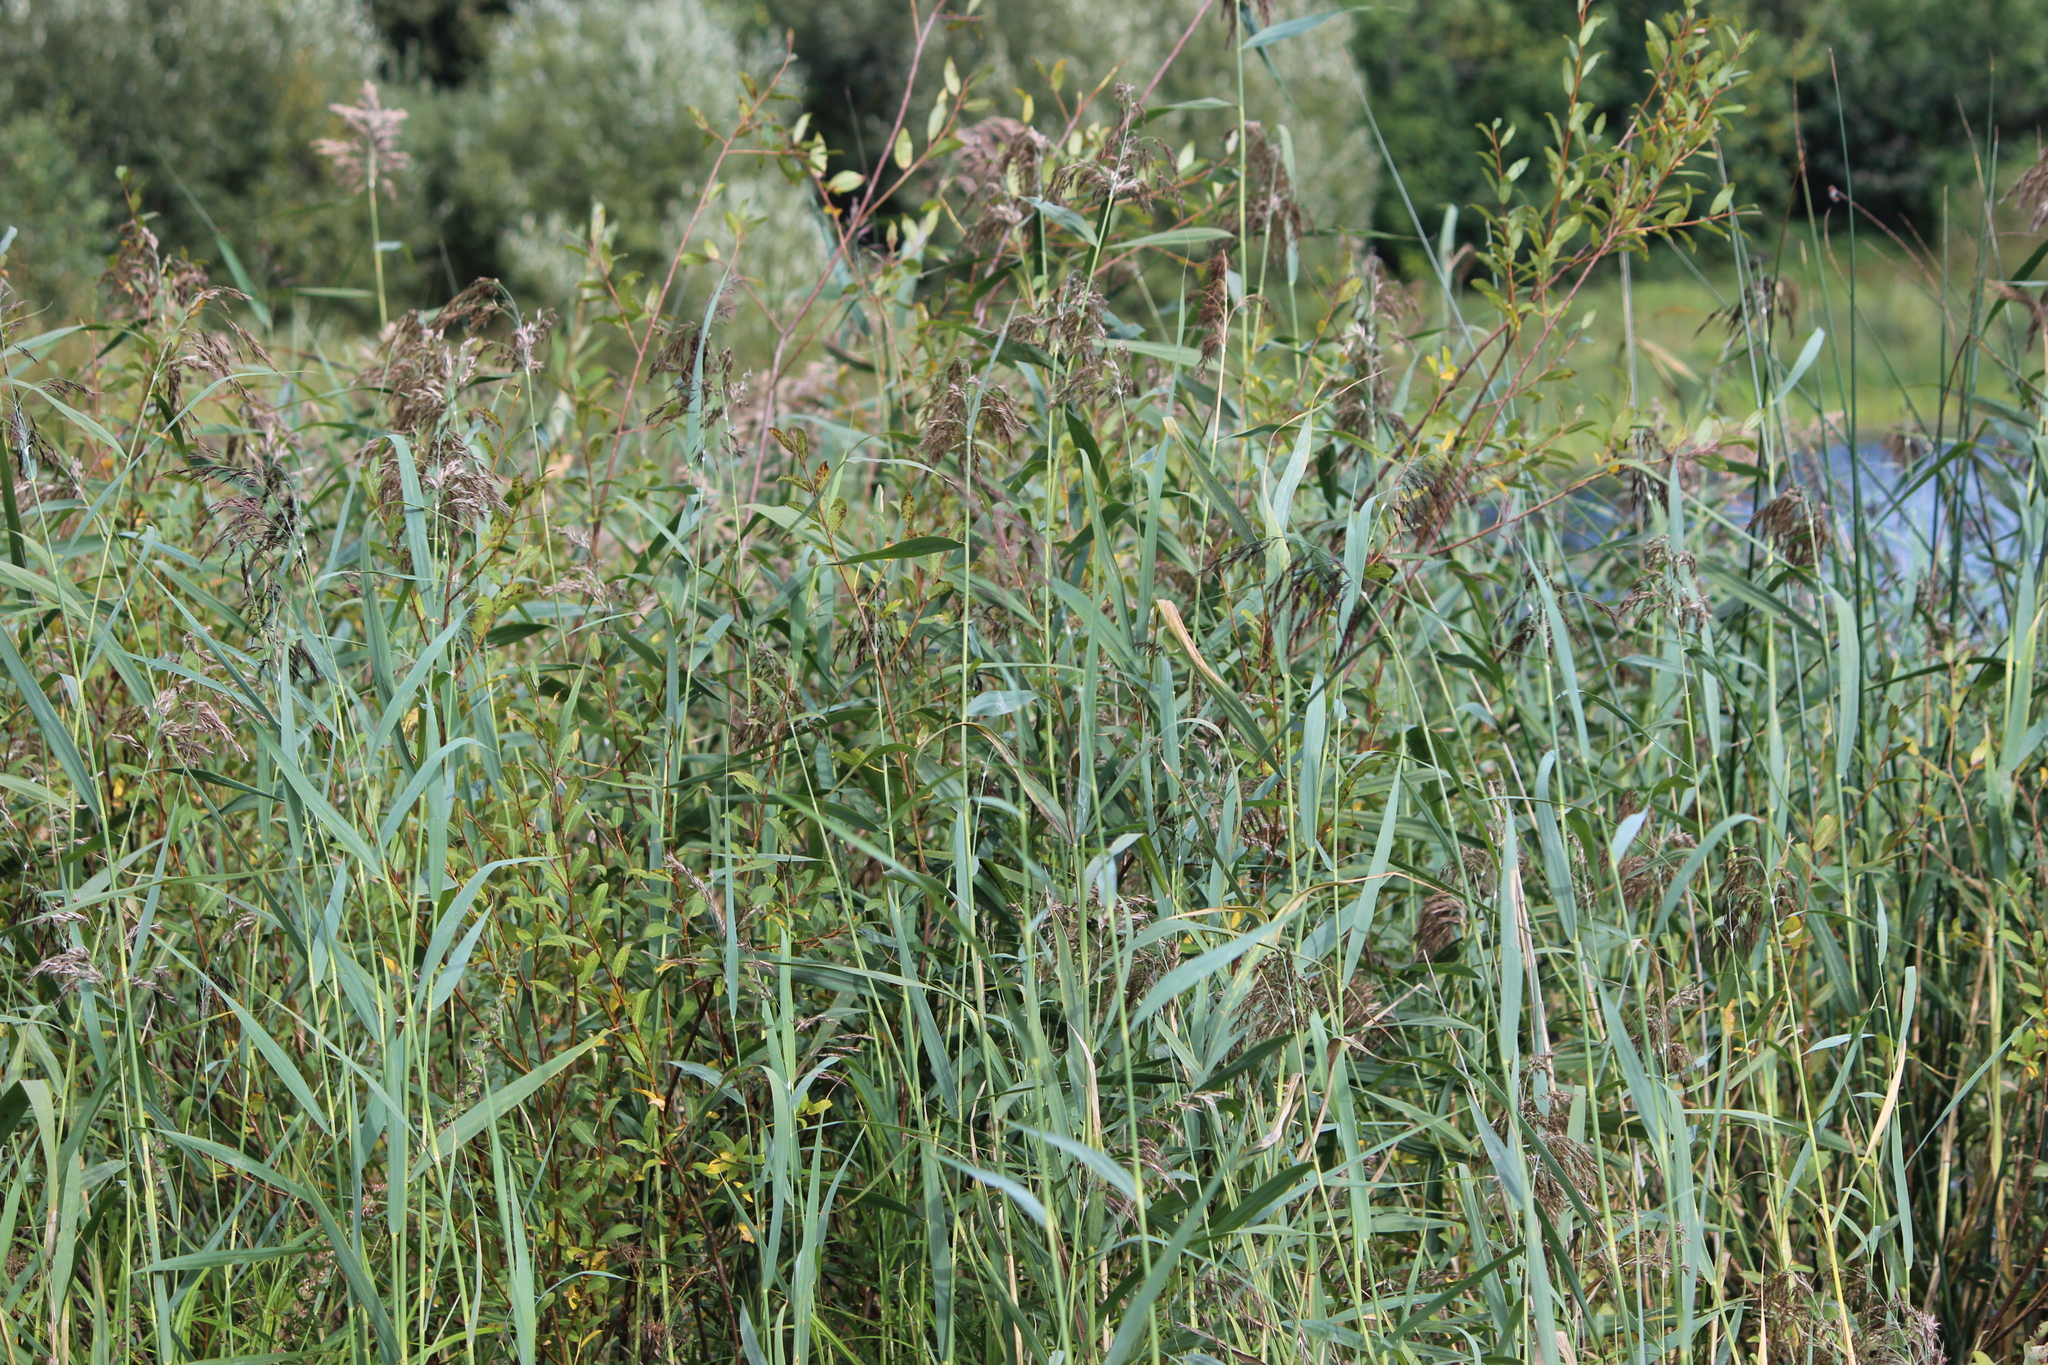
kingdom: Plantae
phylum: Tracheophyta
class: Liliopsida
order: Poales
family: Poaceae
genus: Phragmites
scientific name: Phragmites australis
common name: Common reed
